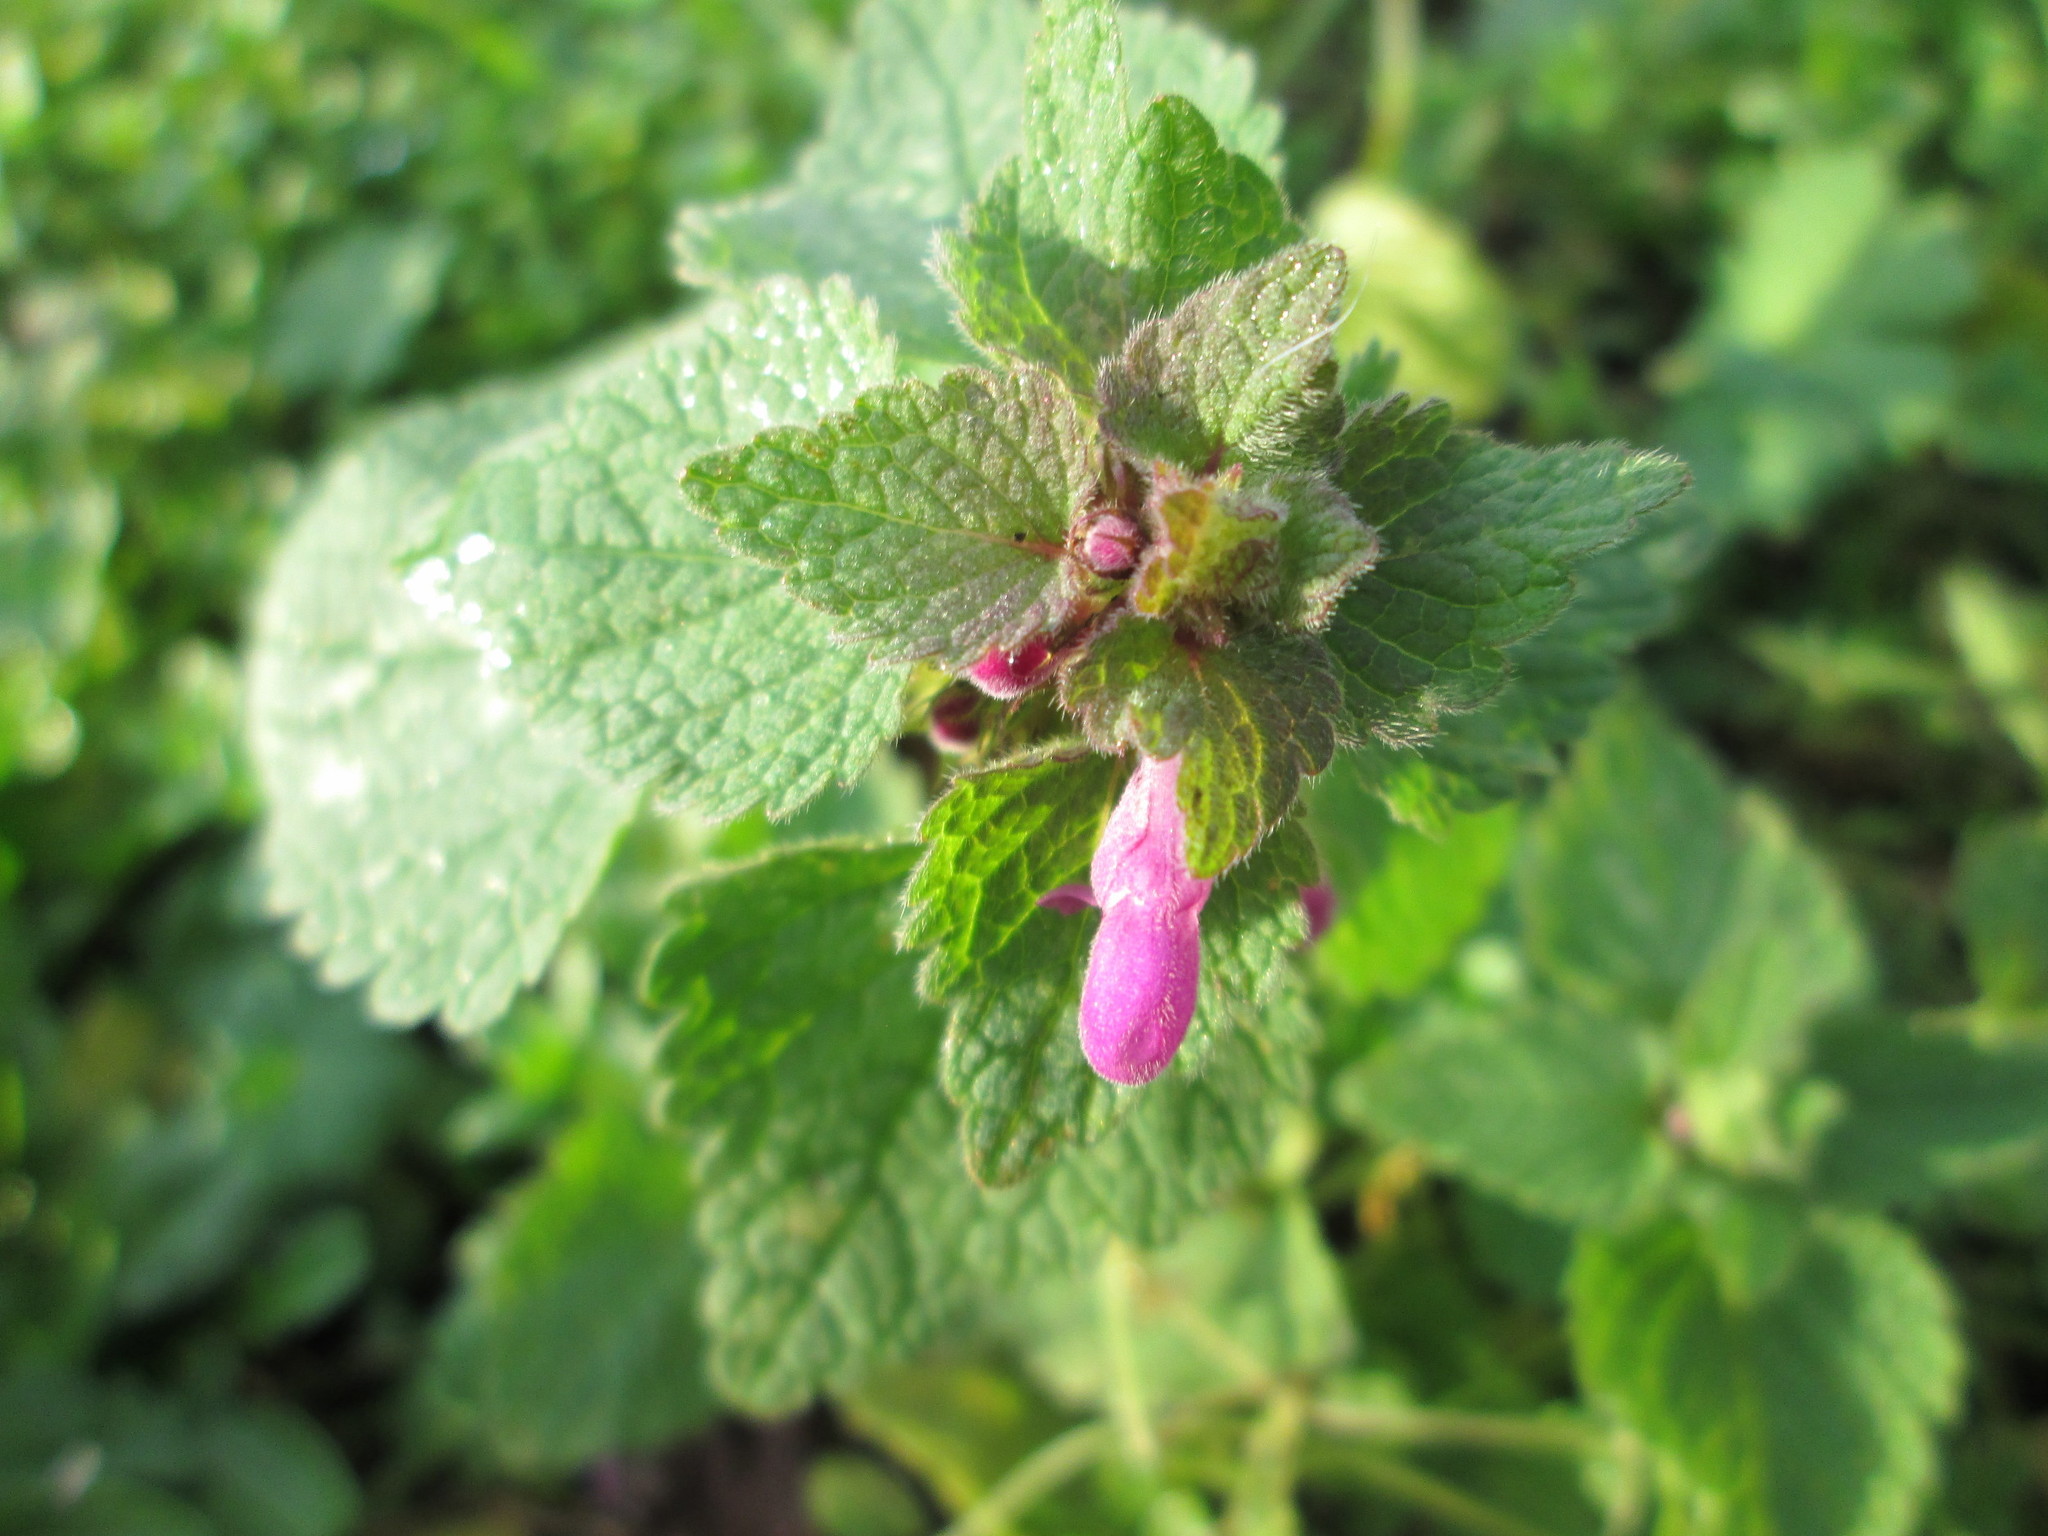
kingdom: Plantae
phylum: Tracheophyta
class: Magnoliopsida
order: Lamiales
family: Lamiaceae
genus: Lamium
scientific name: Lamium purpureum
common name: Red dead-nettle
